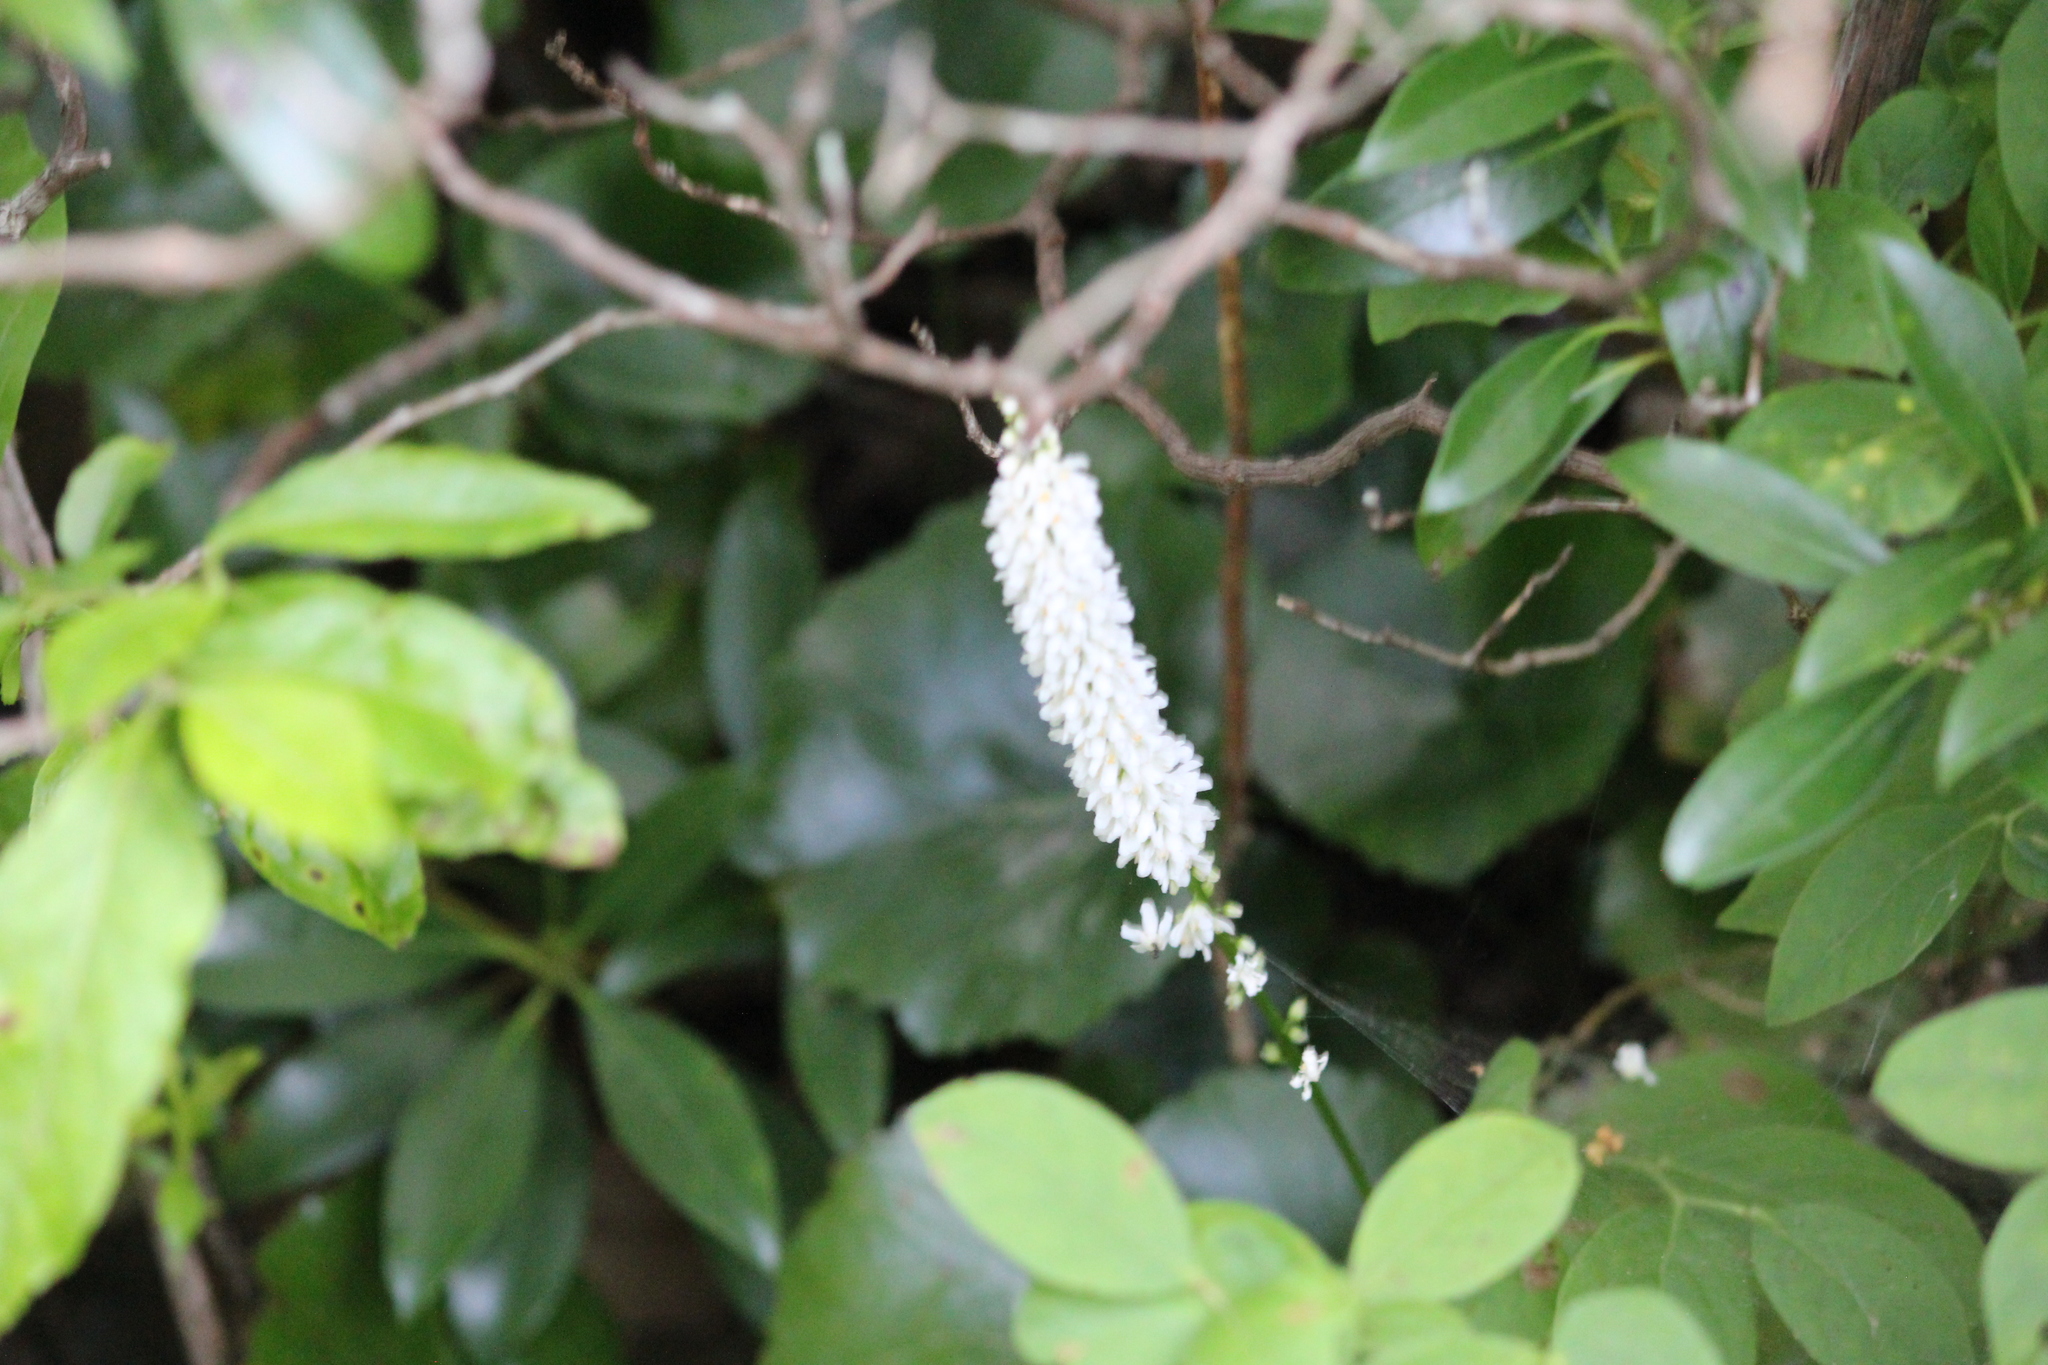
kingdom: Plantae
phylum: Tracheophyta
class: Magnoliopsida
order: Ericales
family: Diapensiaceae
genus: Galax
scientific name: Galax urceolata
